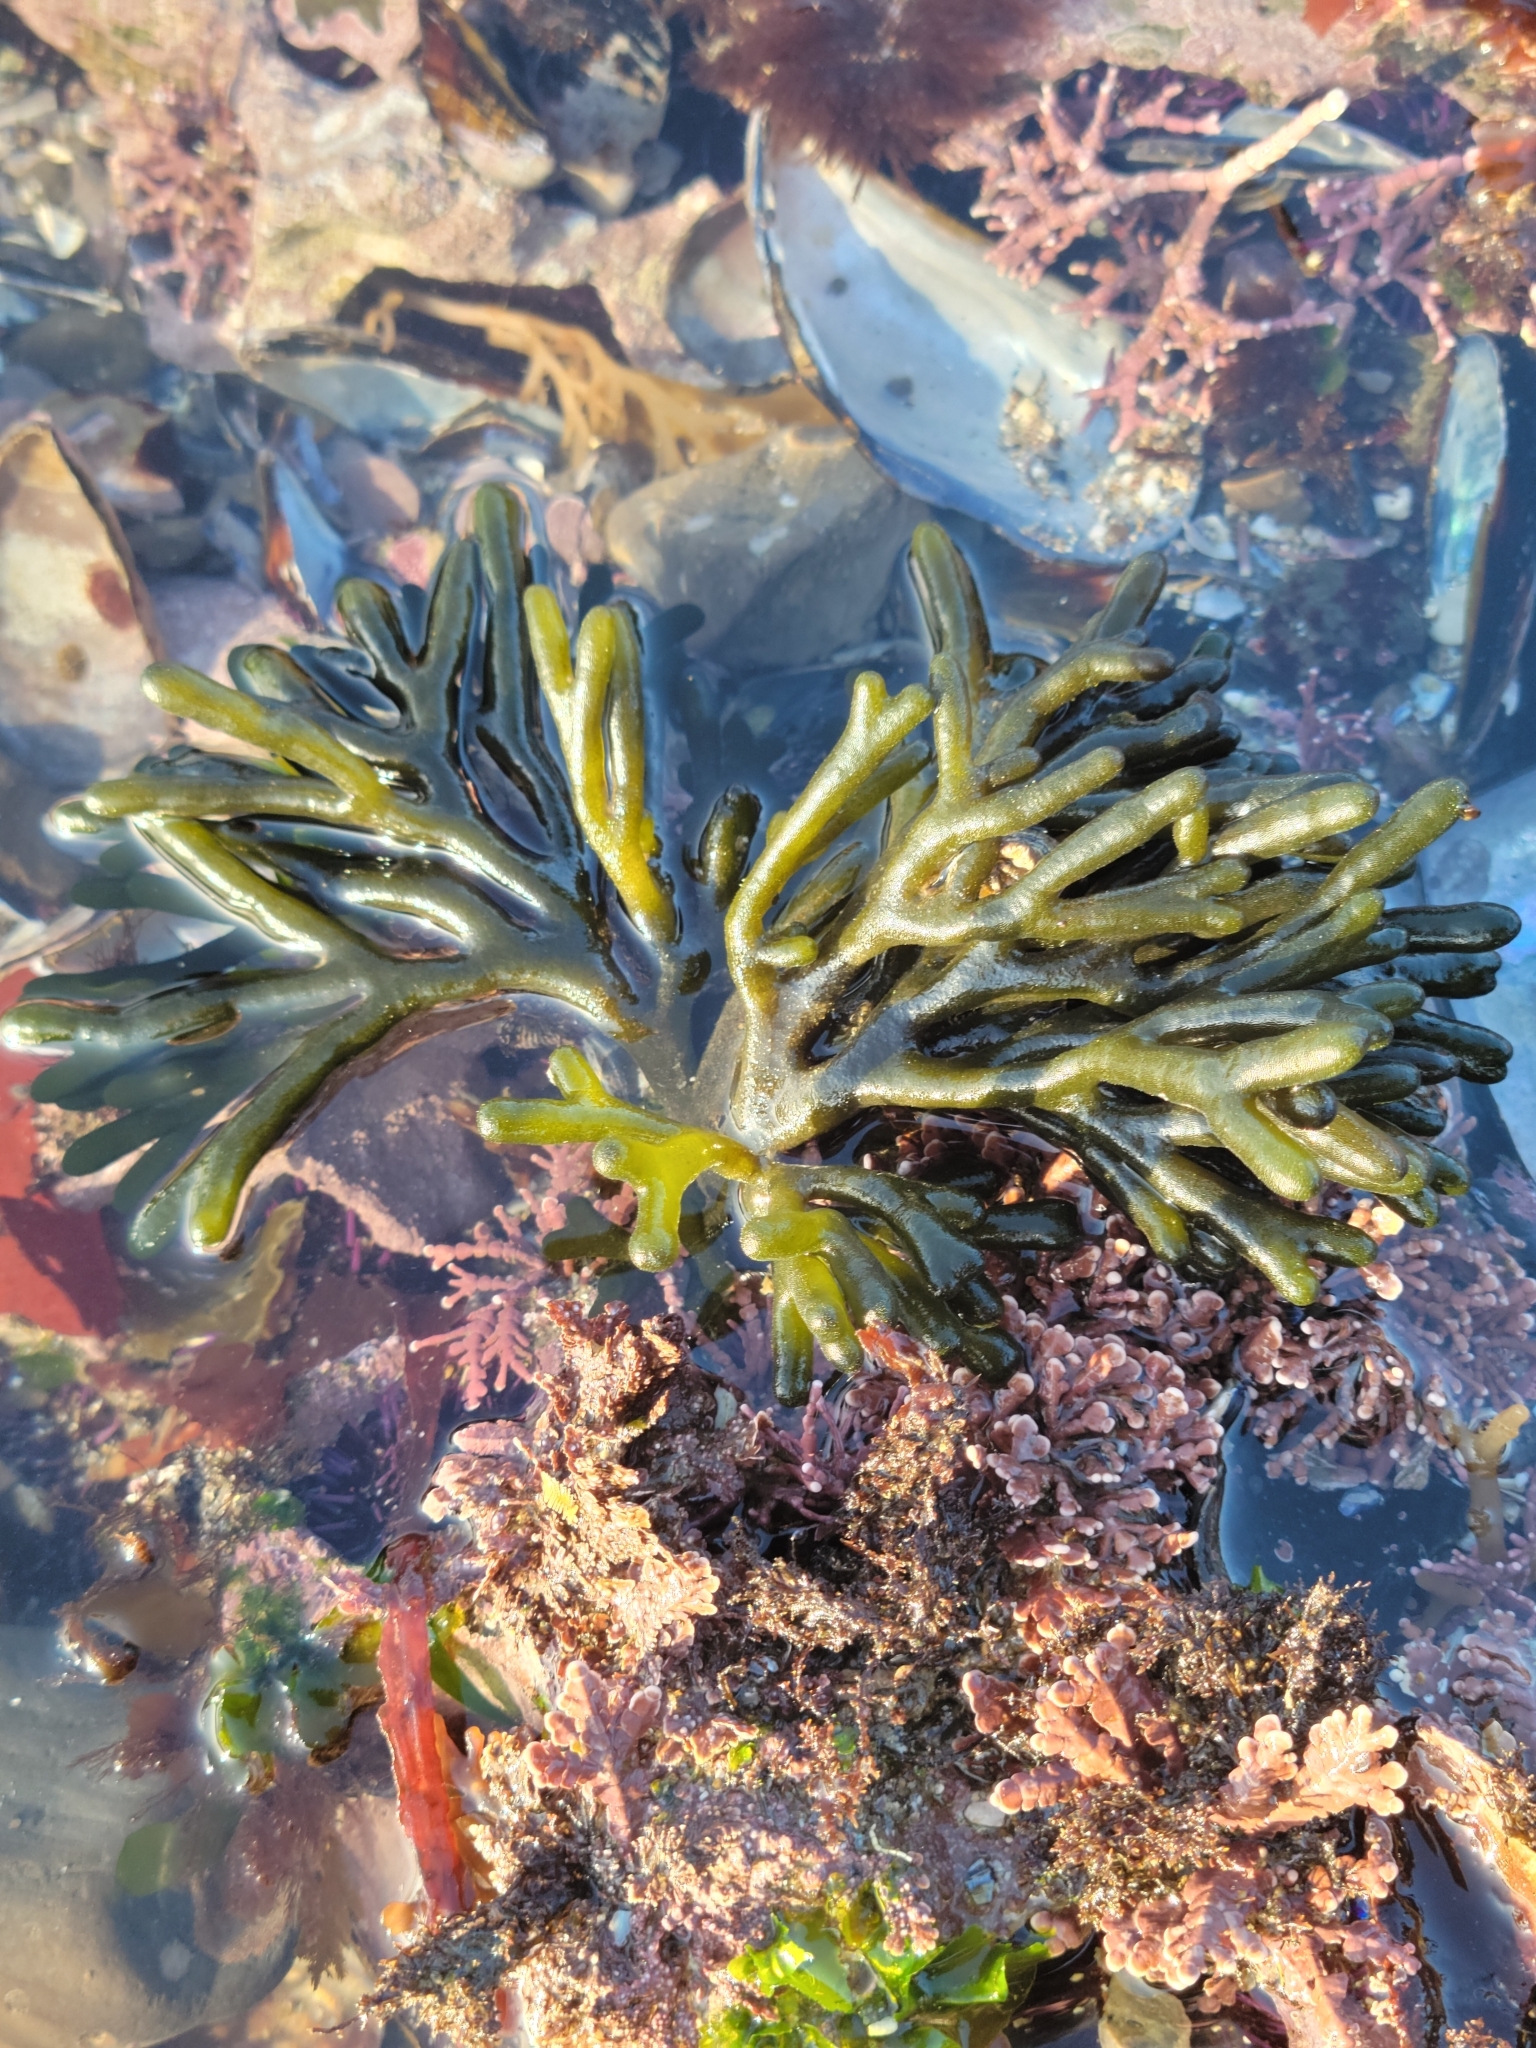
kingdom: Plantae
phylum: Chlorophyta
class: Ulvophyceae
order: Bryopsidales
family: Codiaceae
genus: Codium
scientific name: Codium fragile
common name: Dead man's fingers
